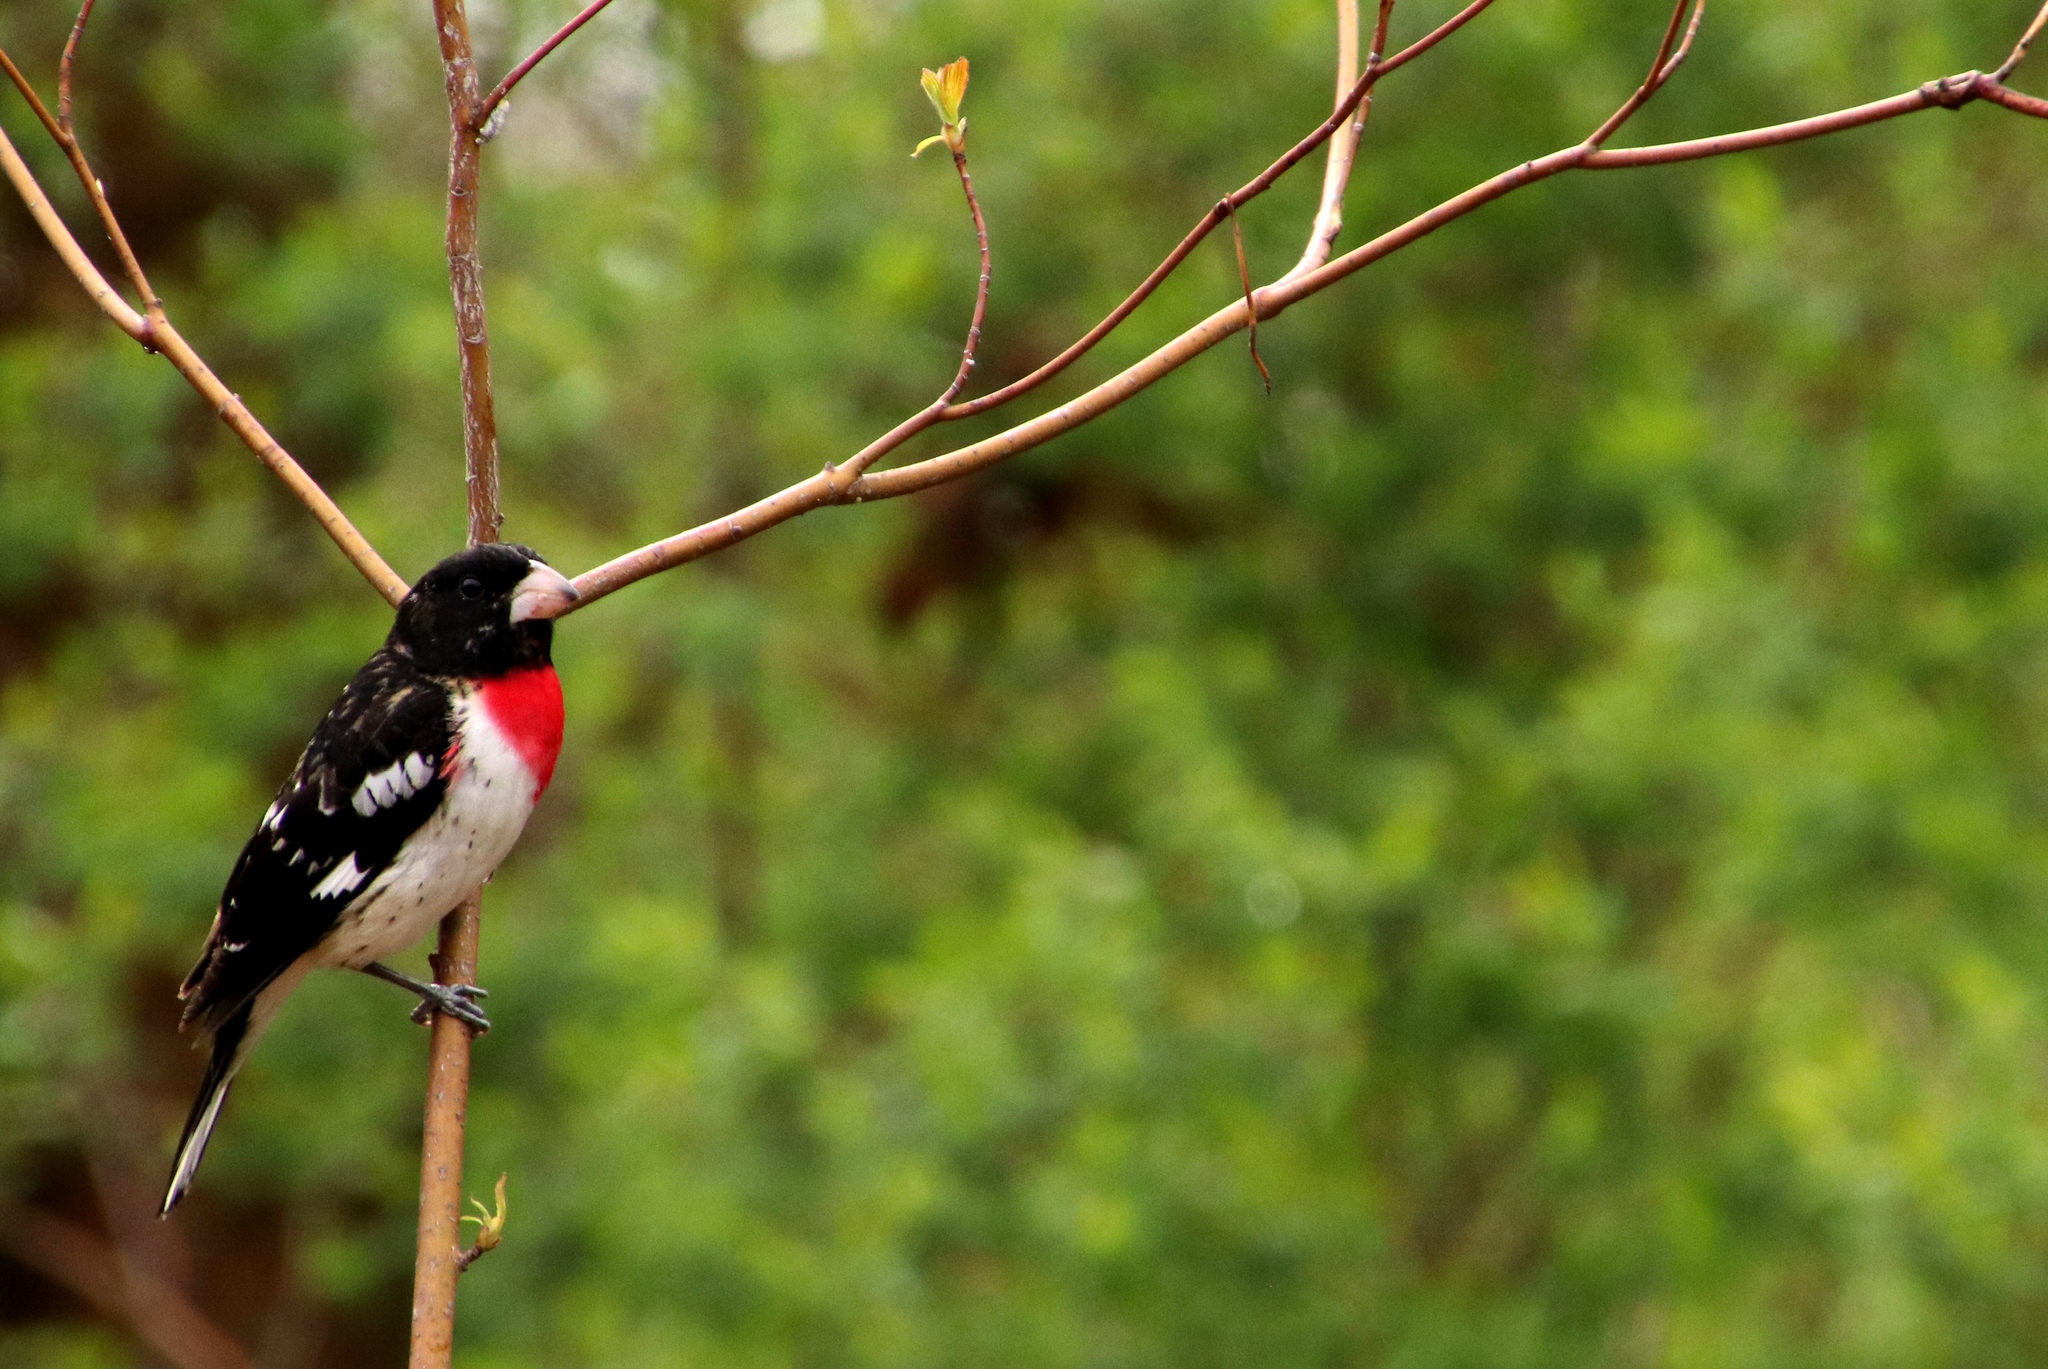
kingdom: Animalia
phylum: Chordata
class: Aves
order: Passeriformes
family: Cardinalidae
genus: Pheucticus
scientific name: Pheucticus ludovicianus
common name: Rose-breasted grosbeak
